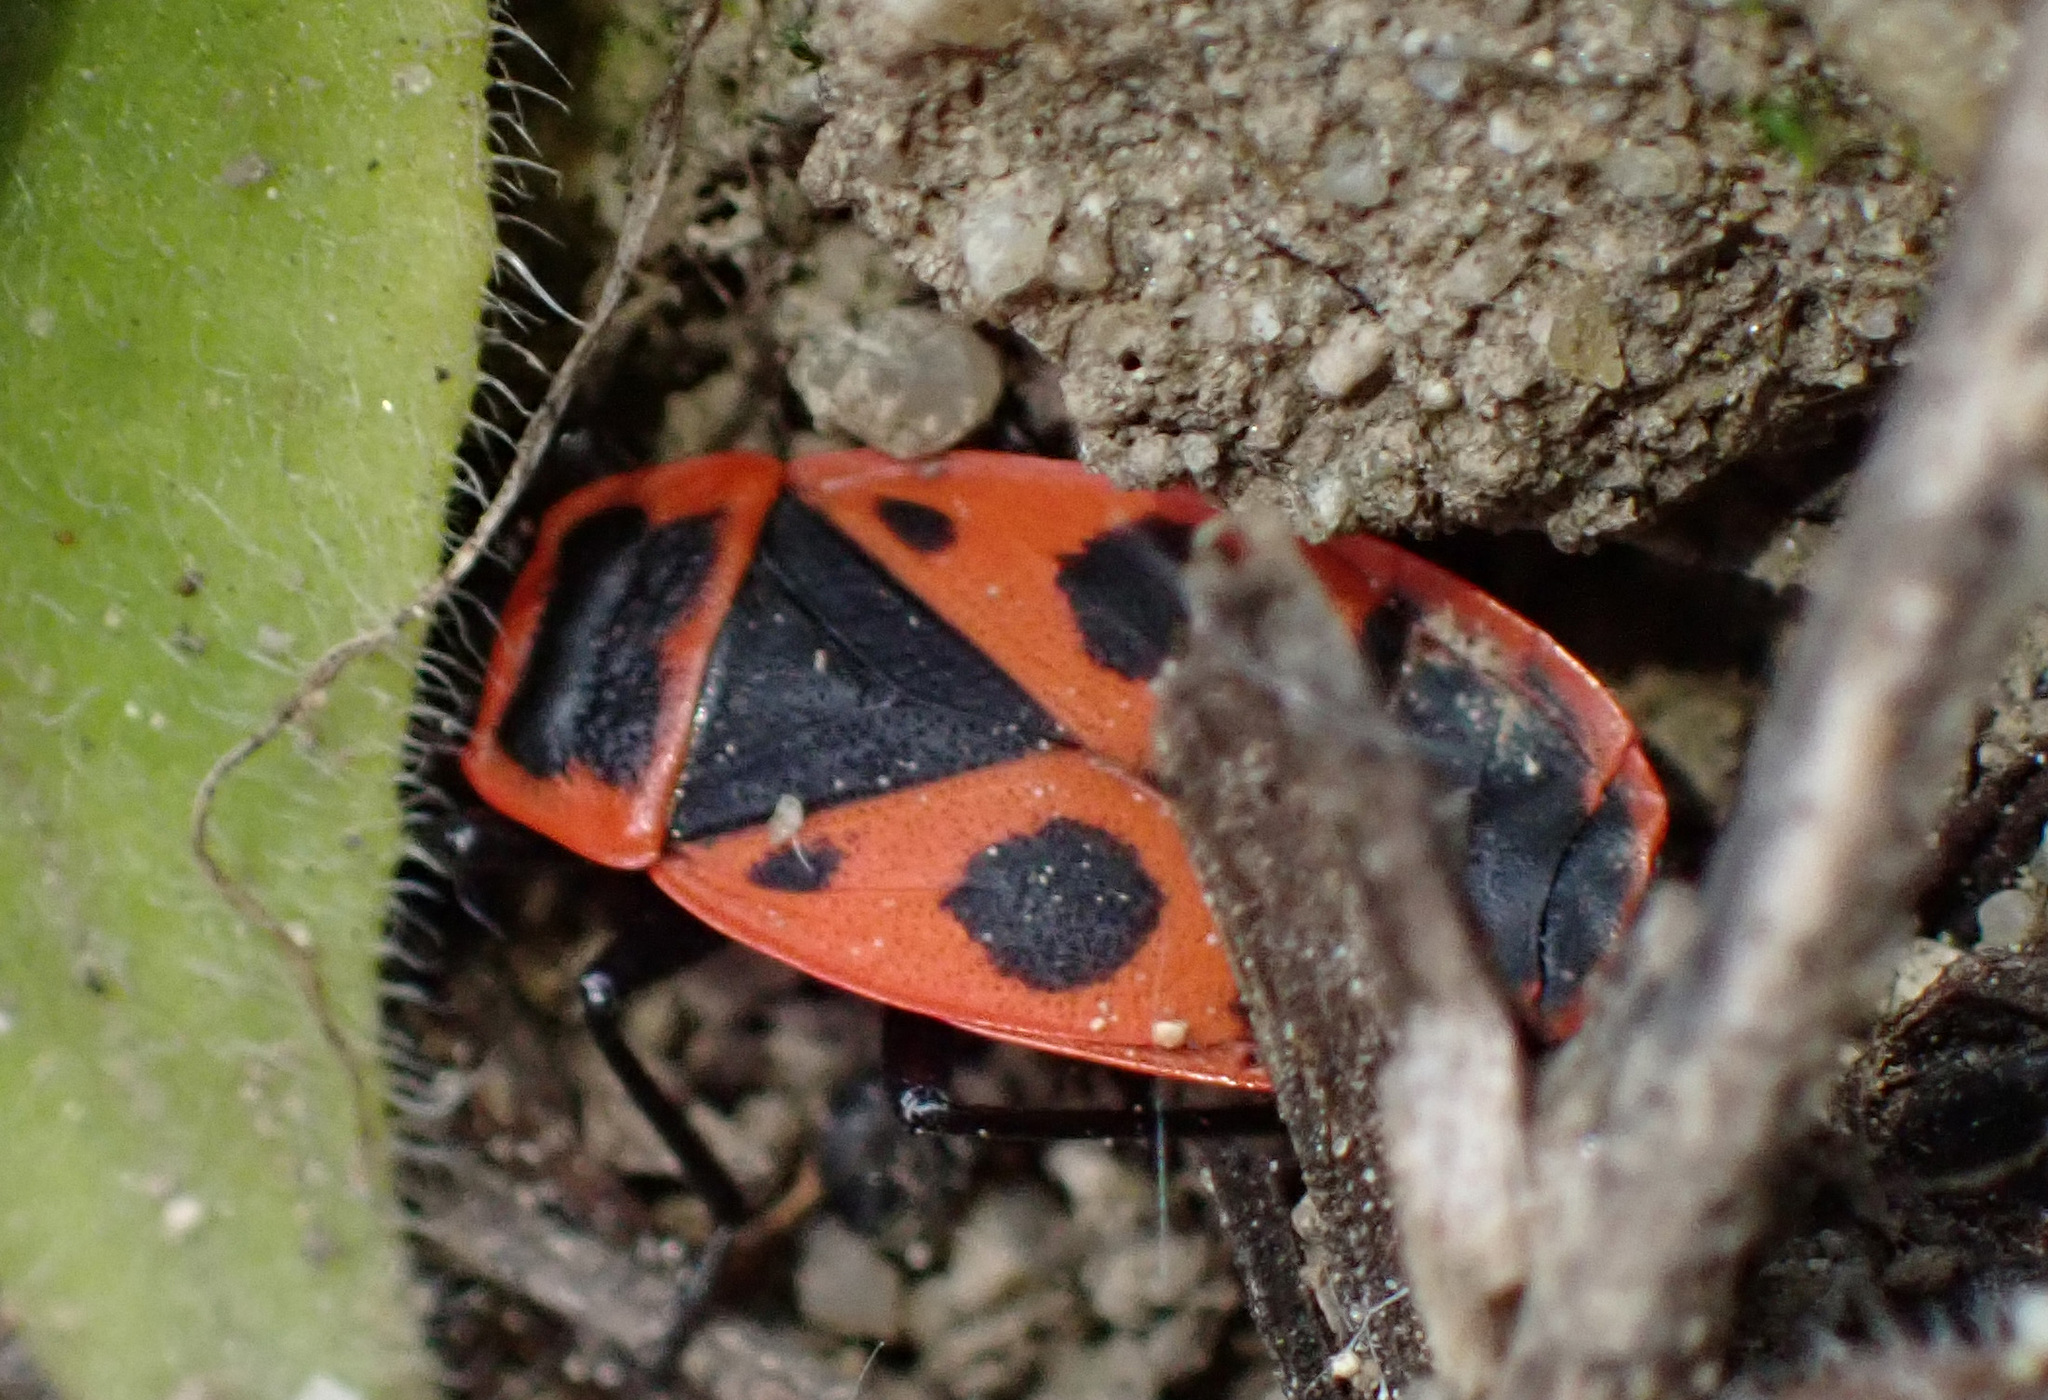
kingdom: Animalia
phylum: Arthropoda
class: Insecta
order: Hemiptera
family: Pyrrhocoridae
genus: Pyrrhocoris
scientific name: Pyrrhocoris apterus
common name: Firebug
